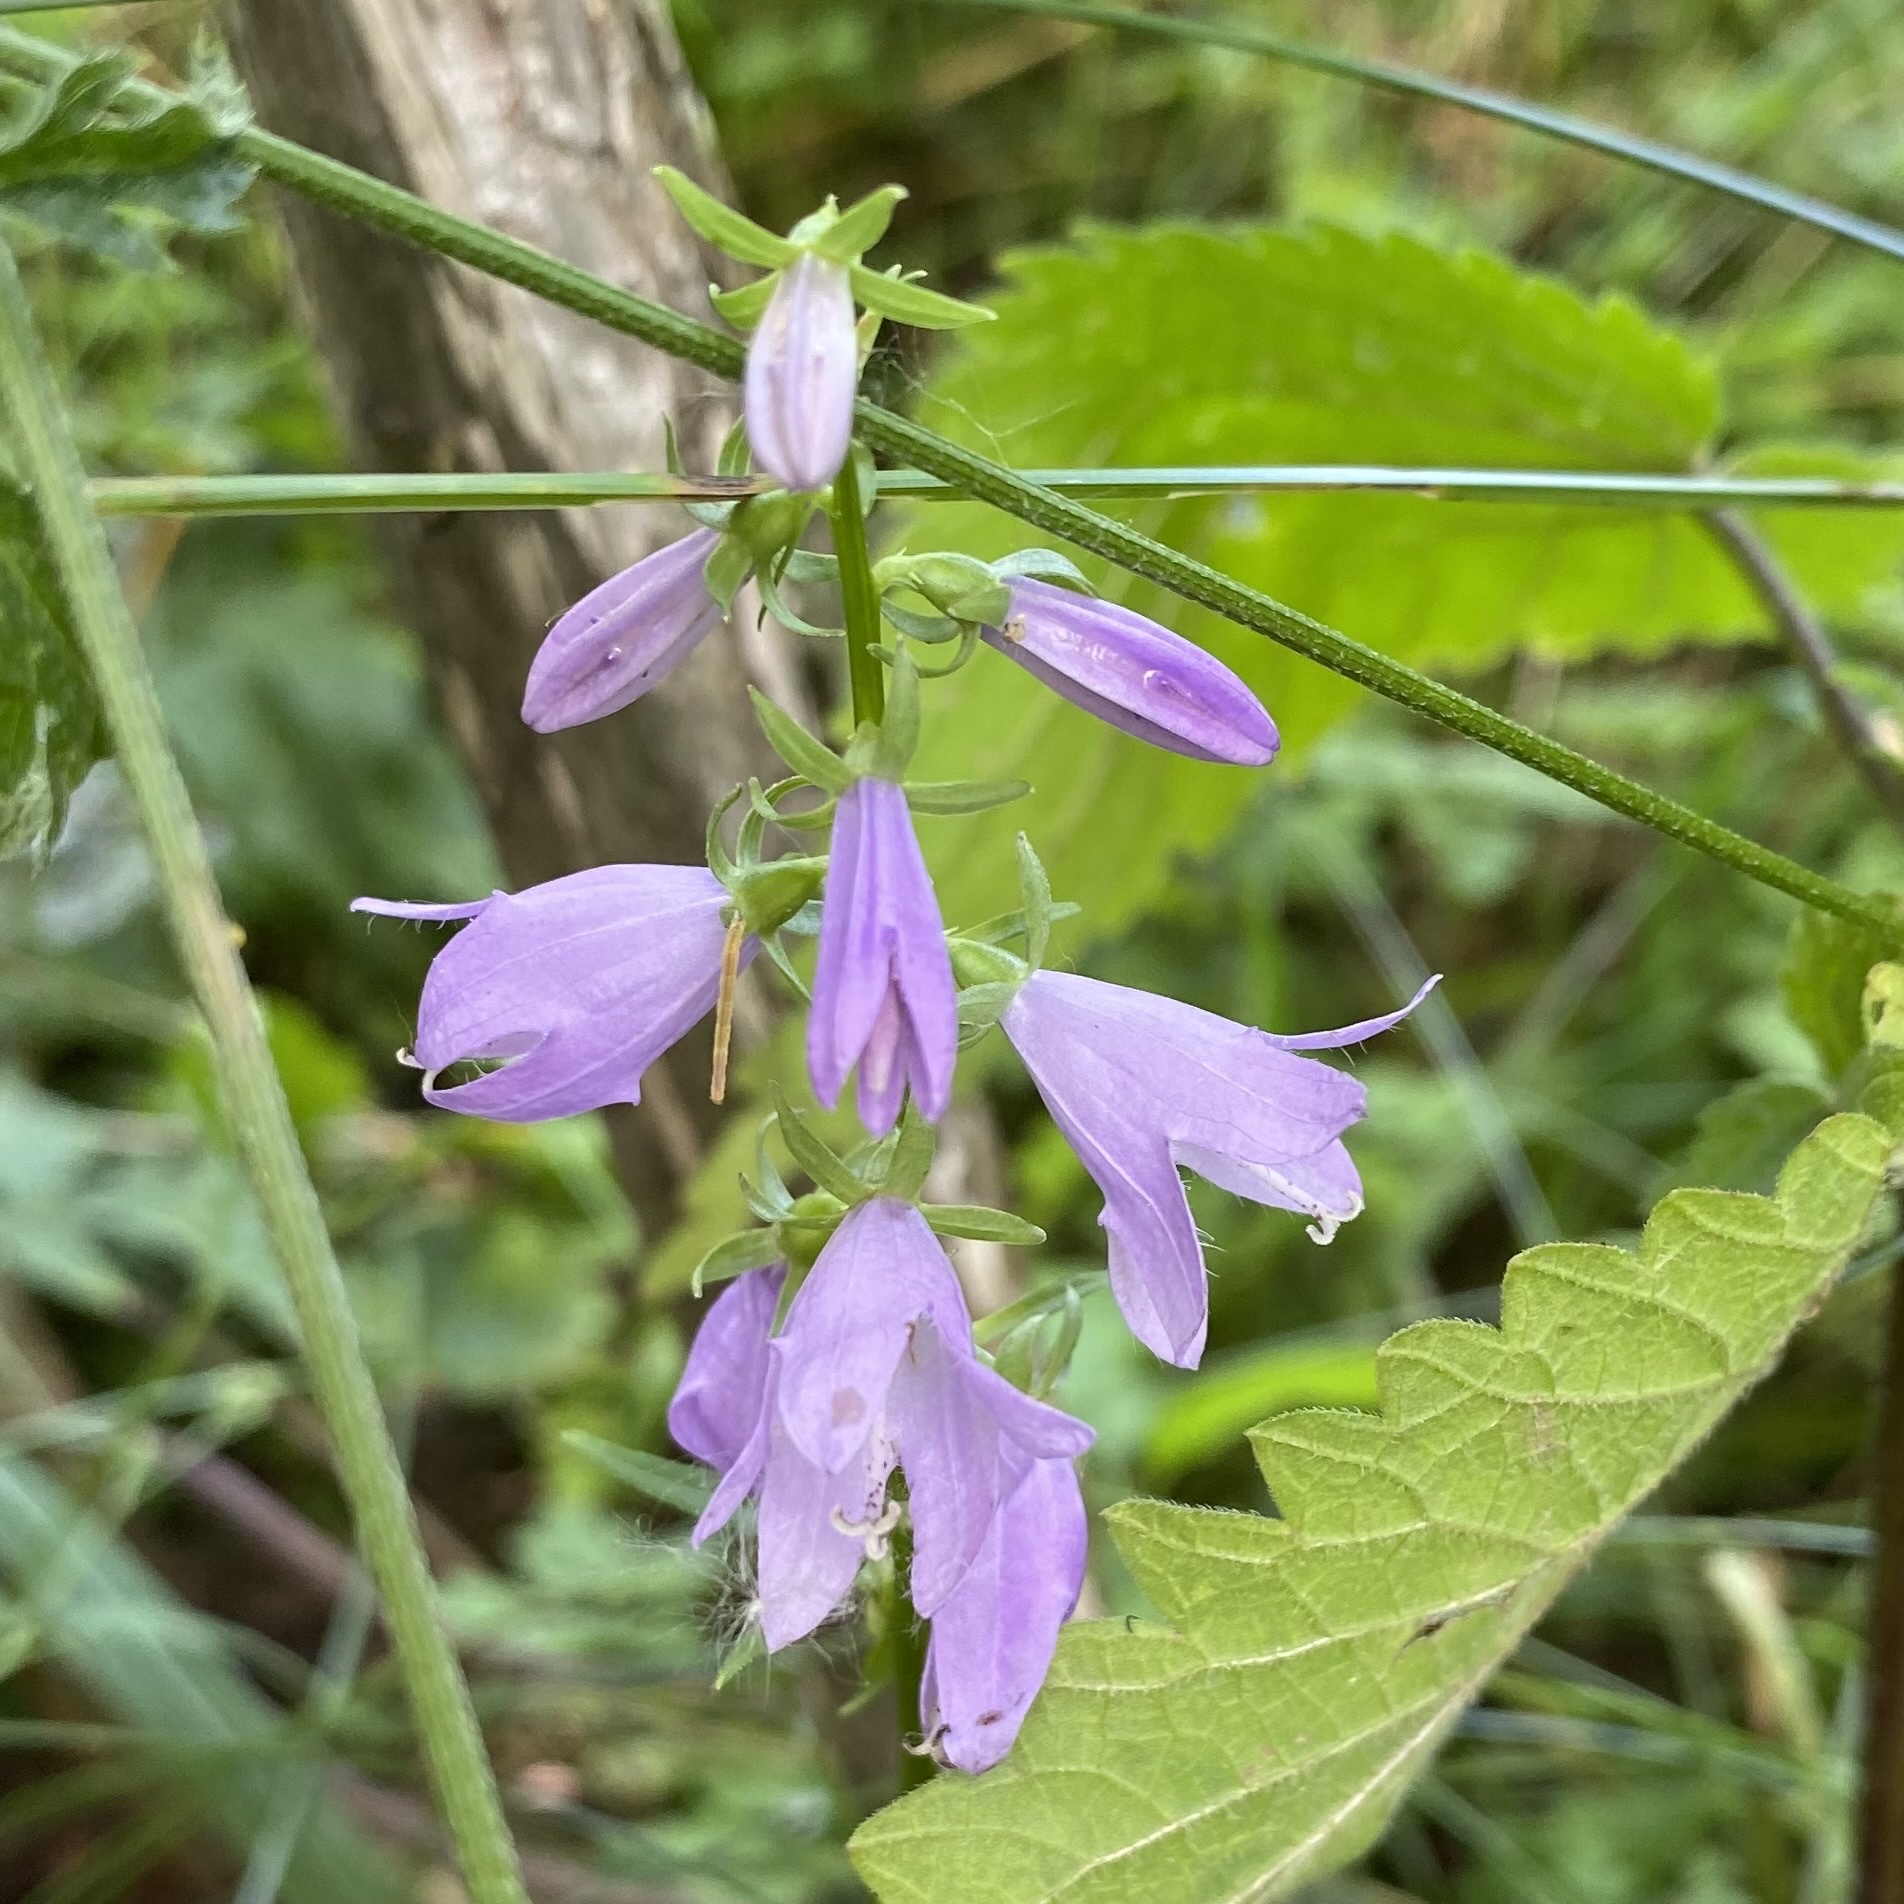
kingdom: Plantae
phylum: Tracheophyta
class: Magnoliopsida
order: Asterales
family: Campanulaceae
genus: Campanula
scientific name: Campanula rapunculoides
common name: Creeping bellflower
